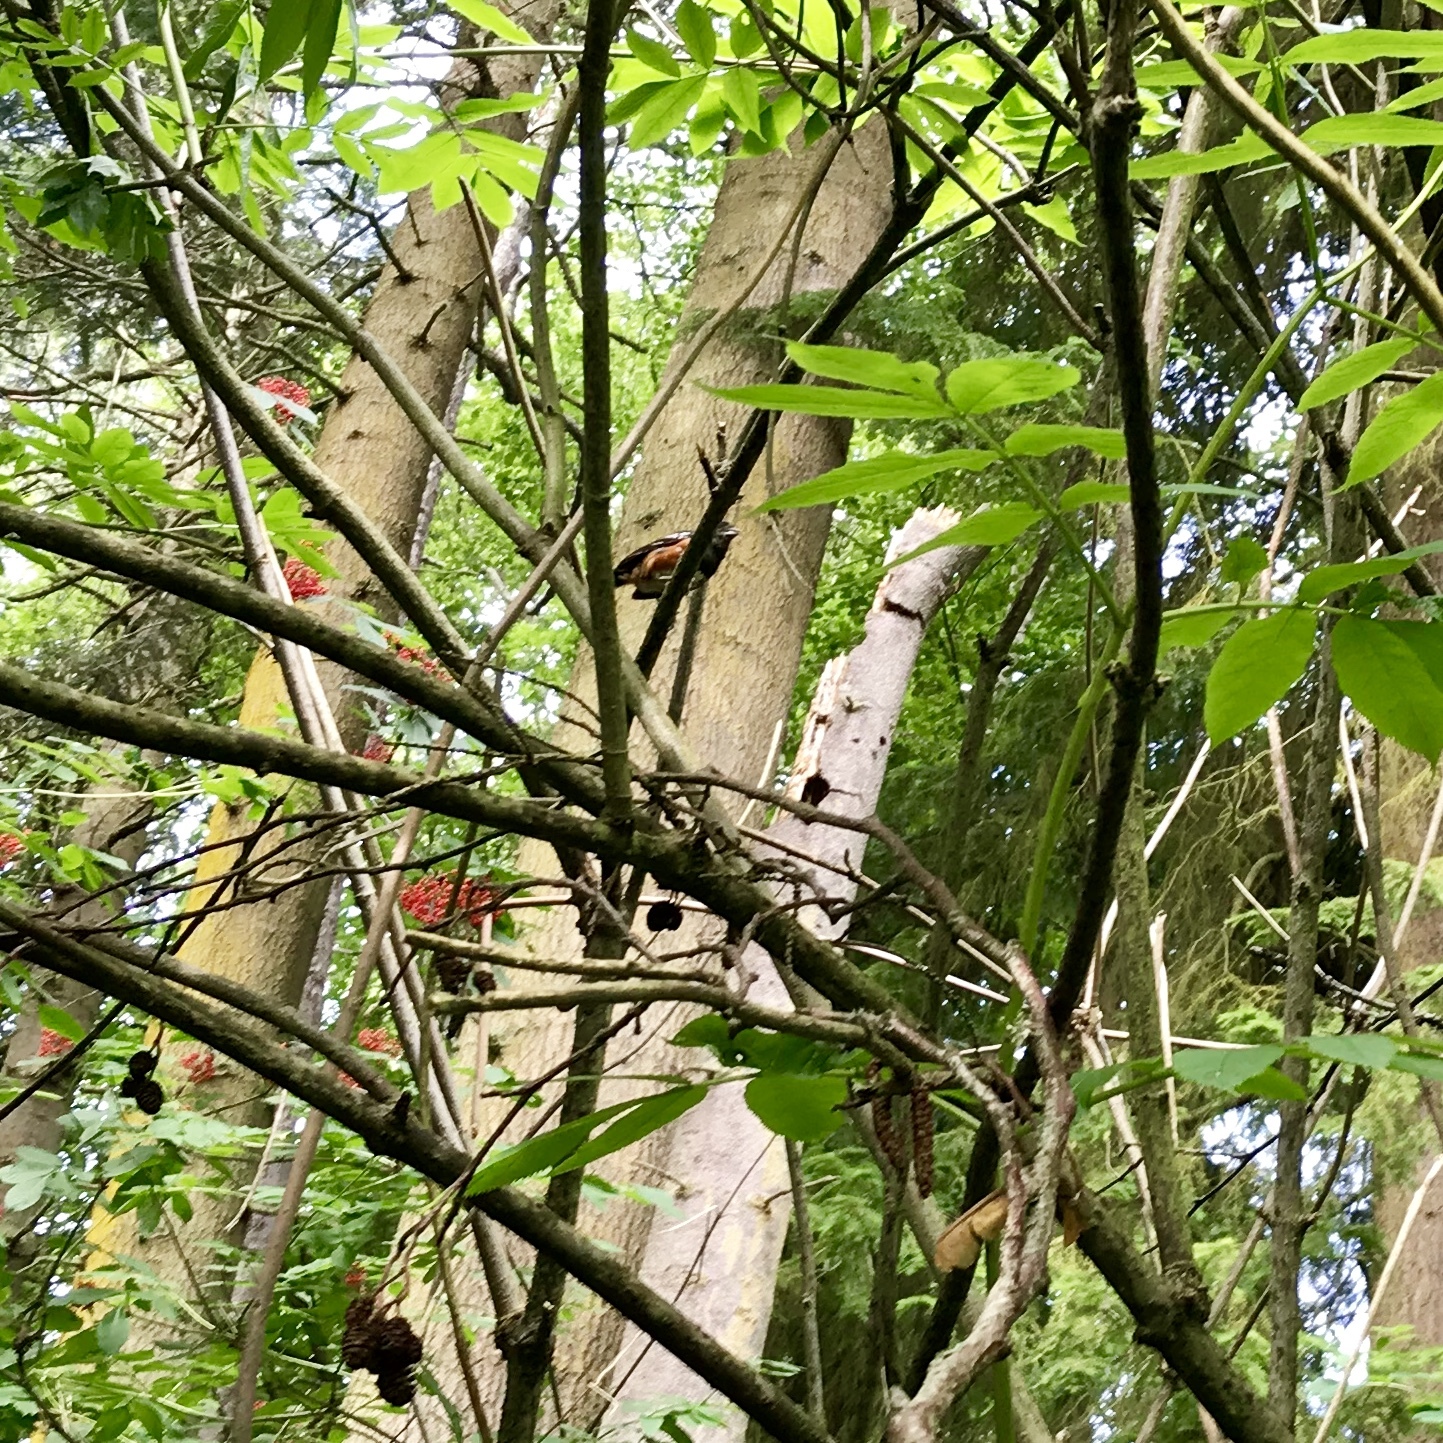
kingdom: Animalia
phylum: Chordata
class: Aves
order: Passeriformes
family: Passerellidae
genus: Pipilo
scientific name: Pipilo maculatus
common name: Spotted towhee
